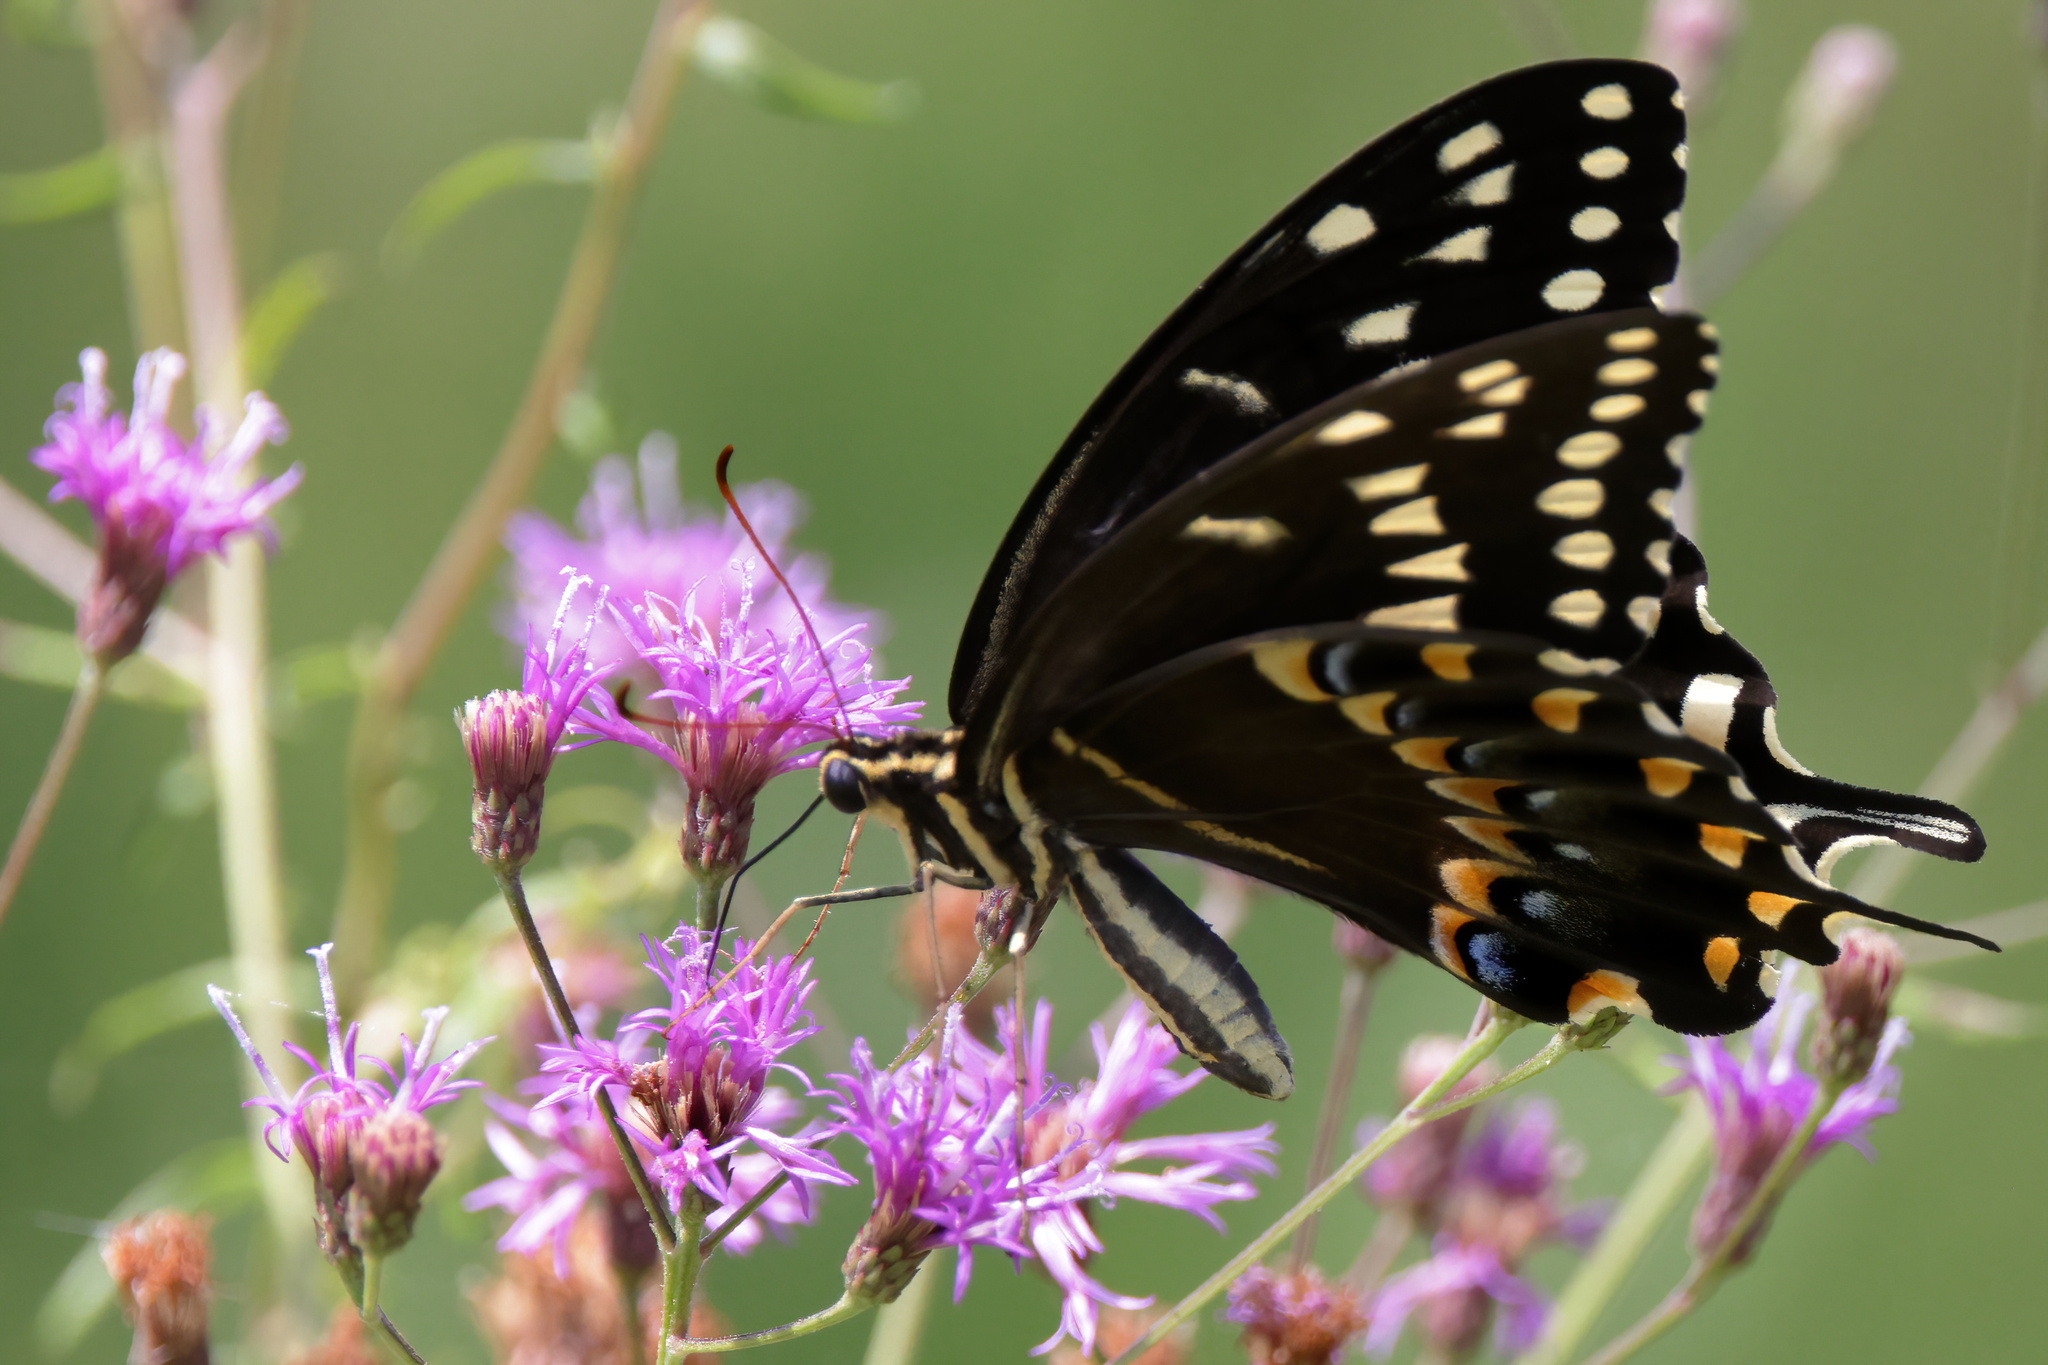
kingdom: Animalia
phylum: Arthropoda
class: Insecta
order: Lepidoptera
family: Papilionidae
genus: Papilio
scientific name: Papilio palamedes
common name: Palamedes swallowtail
